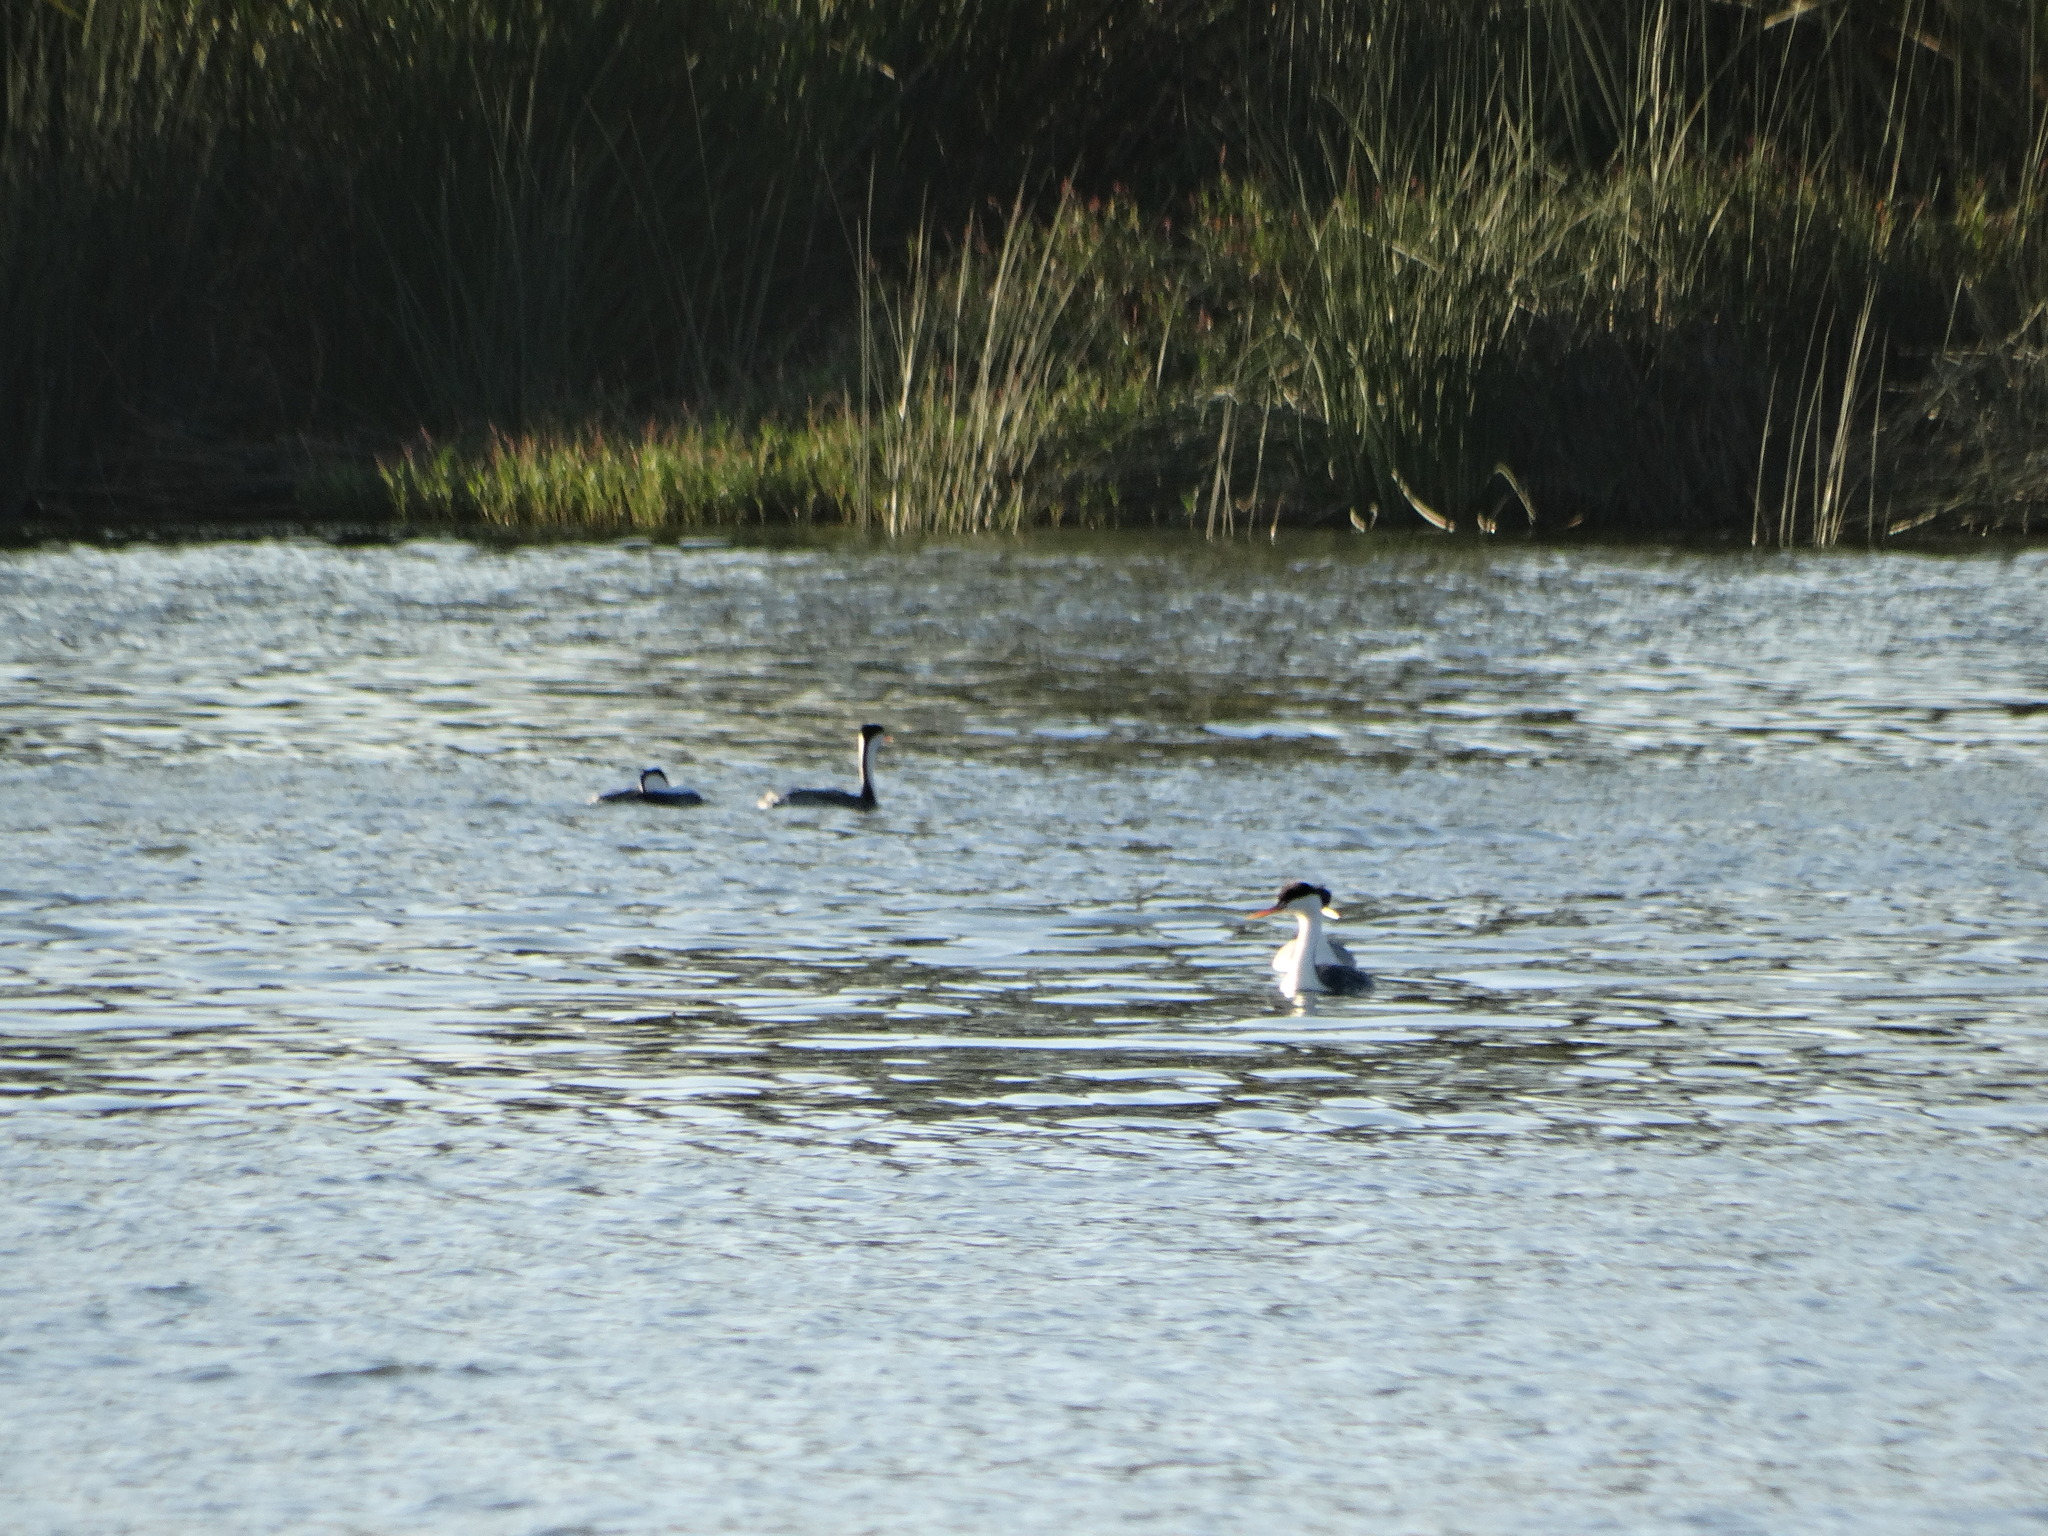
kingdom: Animalia
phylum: Chordata
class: Aves
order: Podicipediformes
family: Podicipedidae
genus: Aechmophorus
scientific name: Aechmophorus occidentalis
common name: Western grebe
